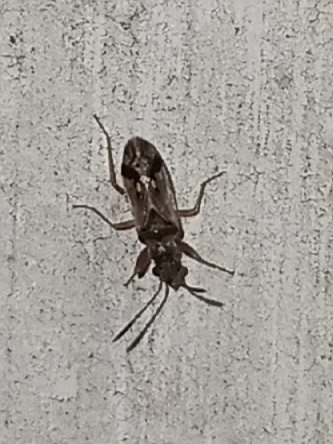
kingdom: Animalia
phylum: Arthropoda
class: Insecta
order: Hemiptera
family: Rhyparochromidae
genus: Pseudopachybrachius
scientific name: Pseudopachybrachius vinctus
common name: Dirt-colored seed bug
